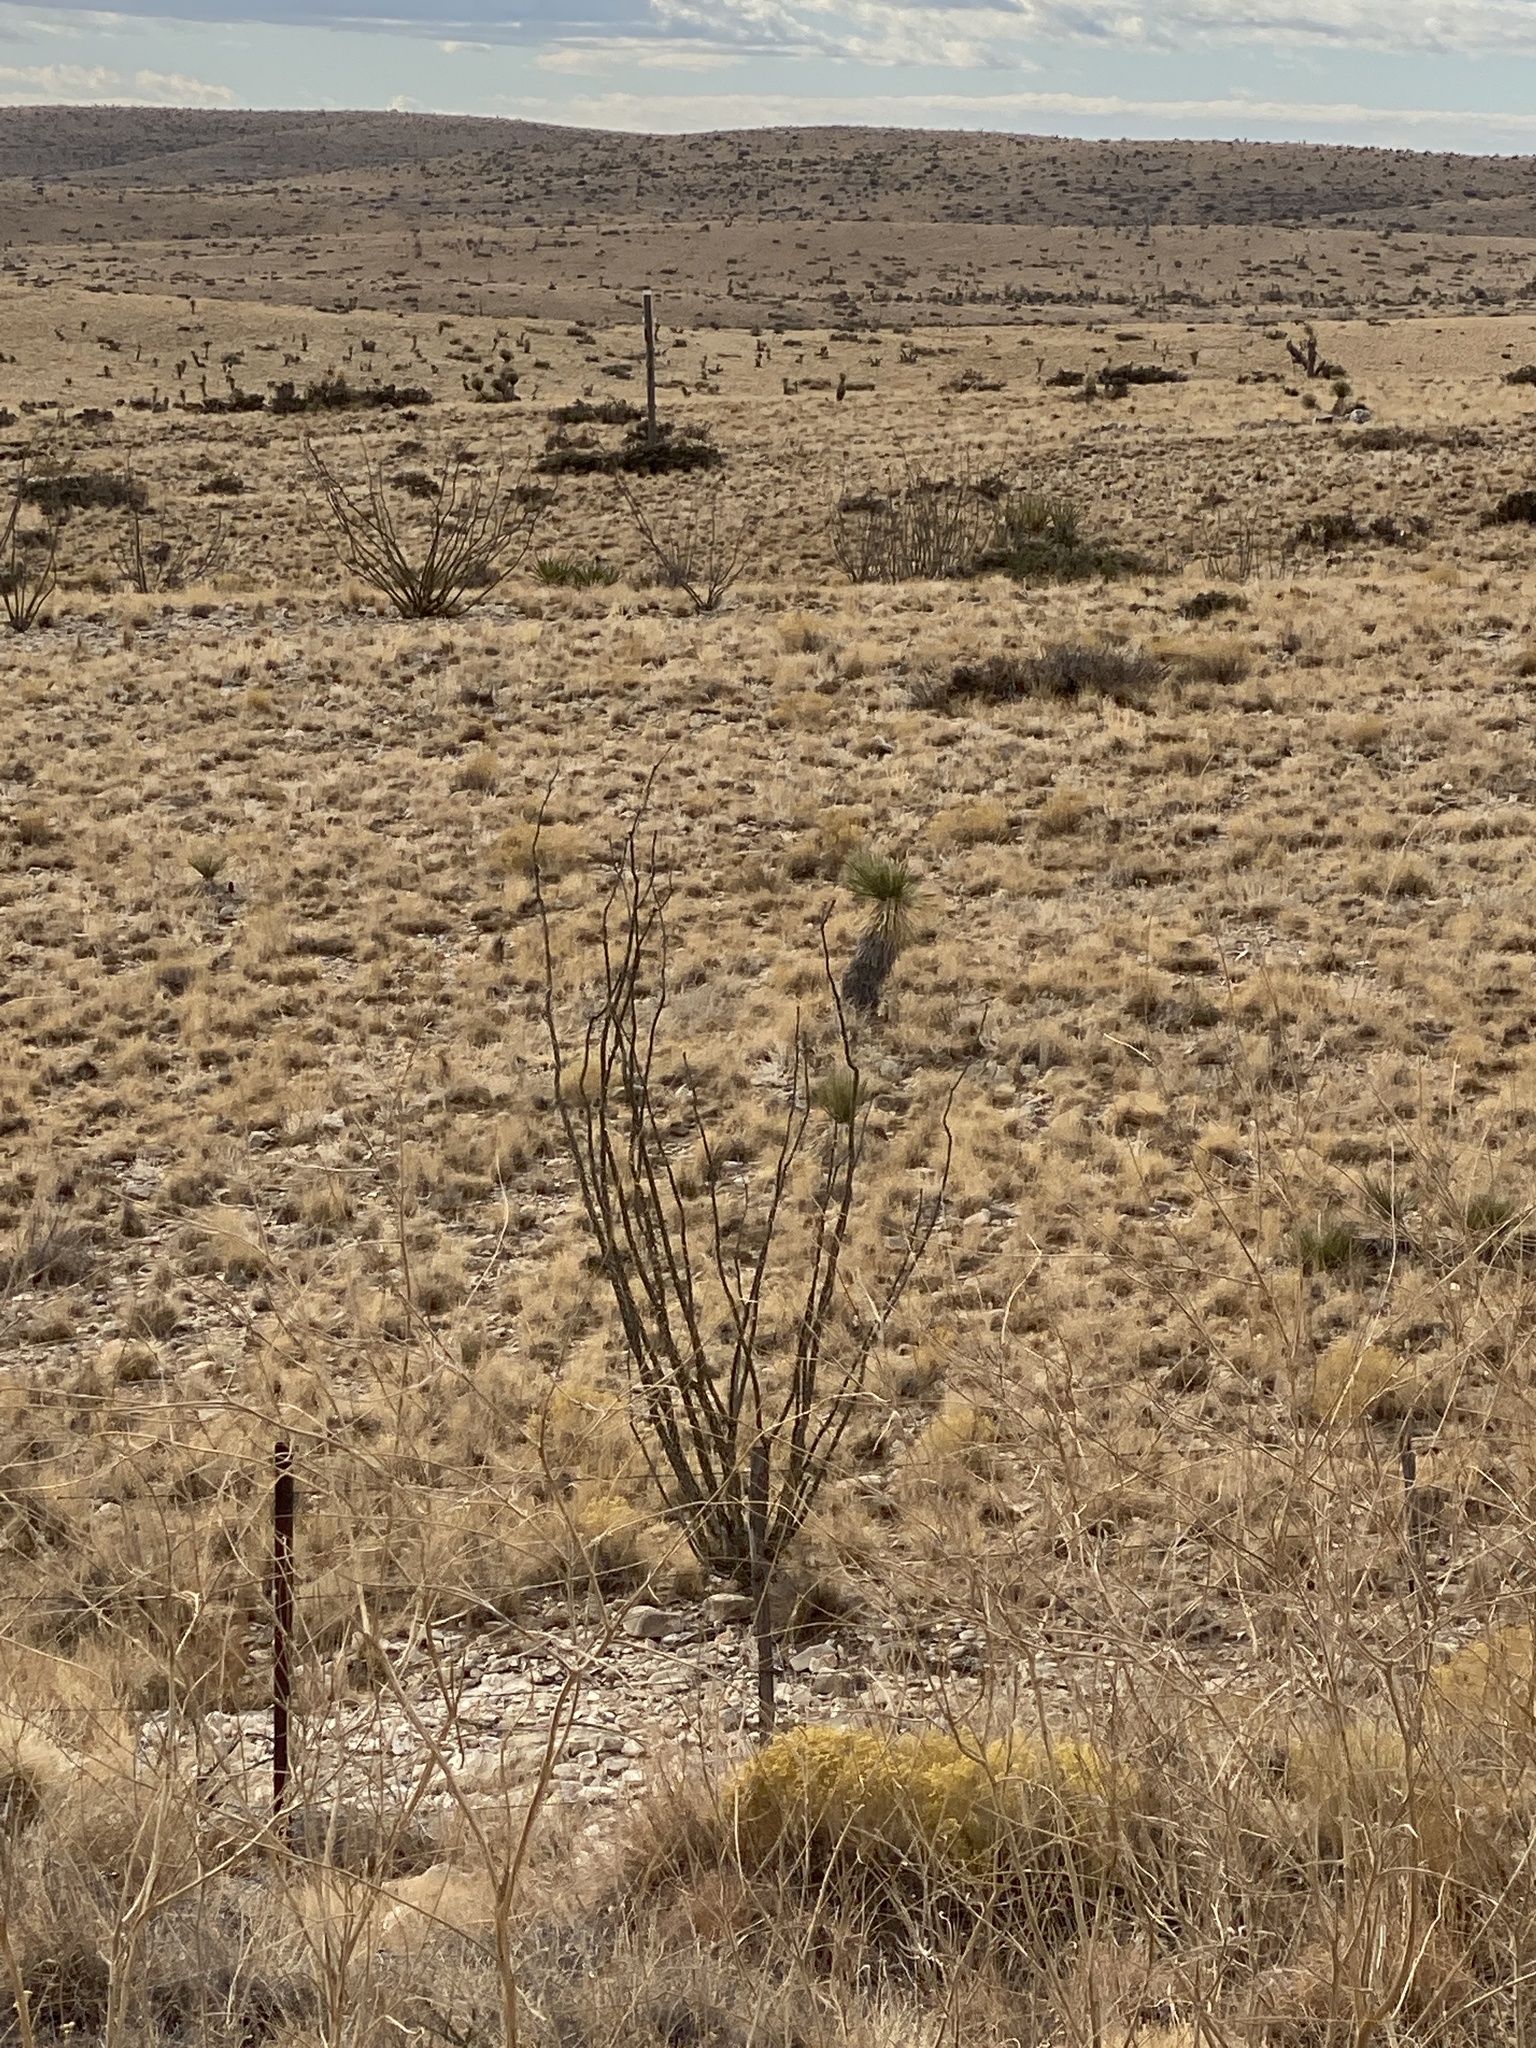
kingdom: Plantae
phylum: Tracheophyta
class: Magnoliopsida
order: Ericales
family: Fouquieriaceae
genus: Fouquieria
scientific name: Fouquieria splendens
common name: Vine-cactus
